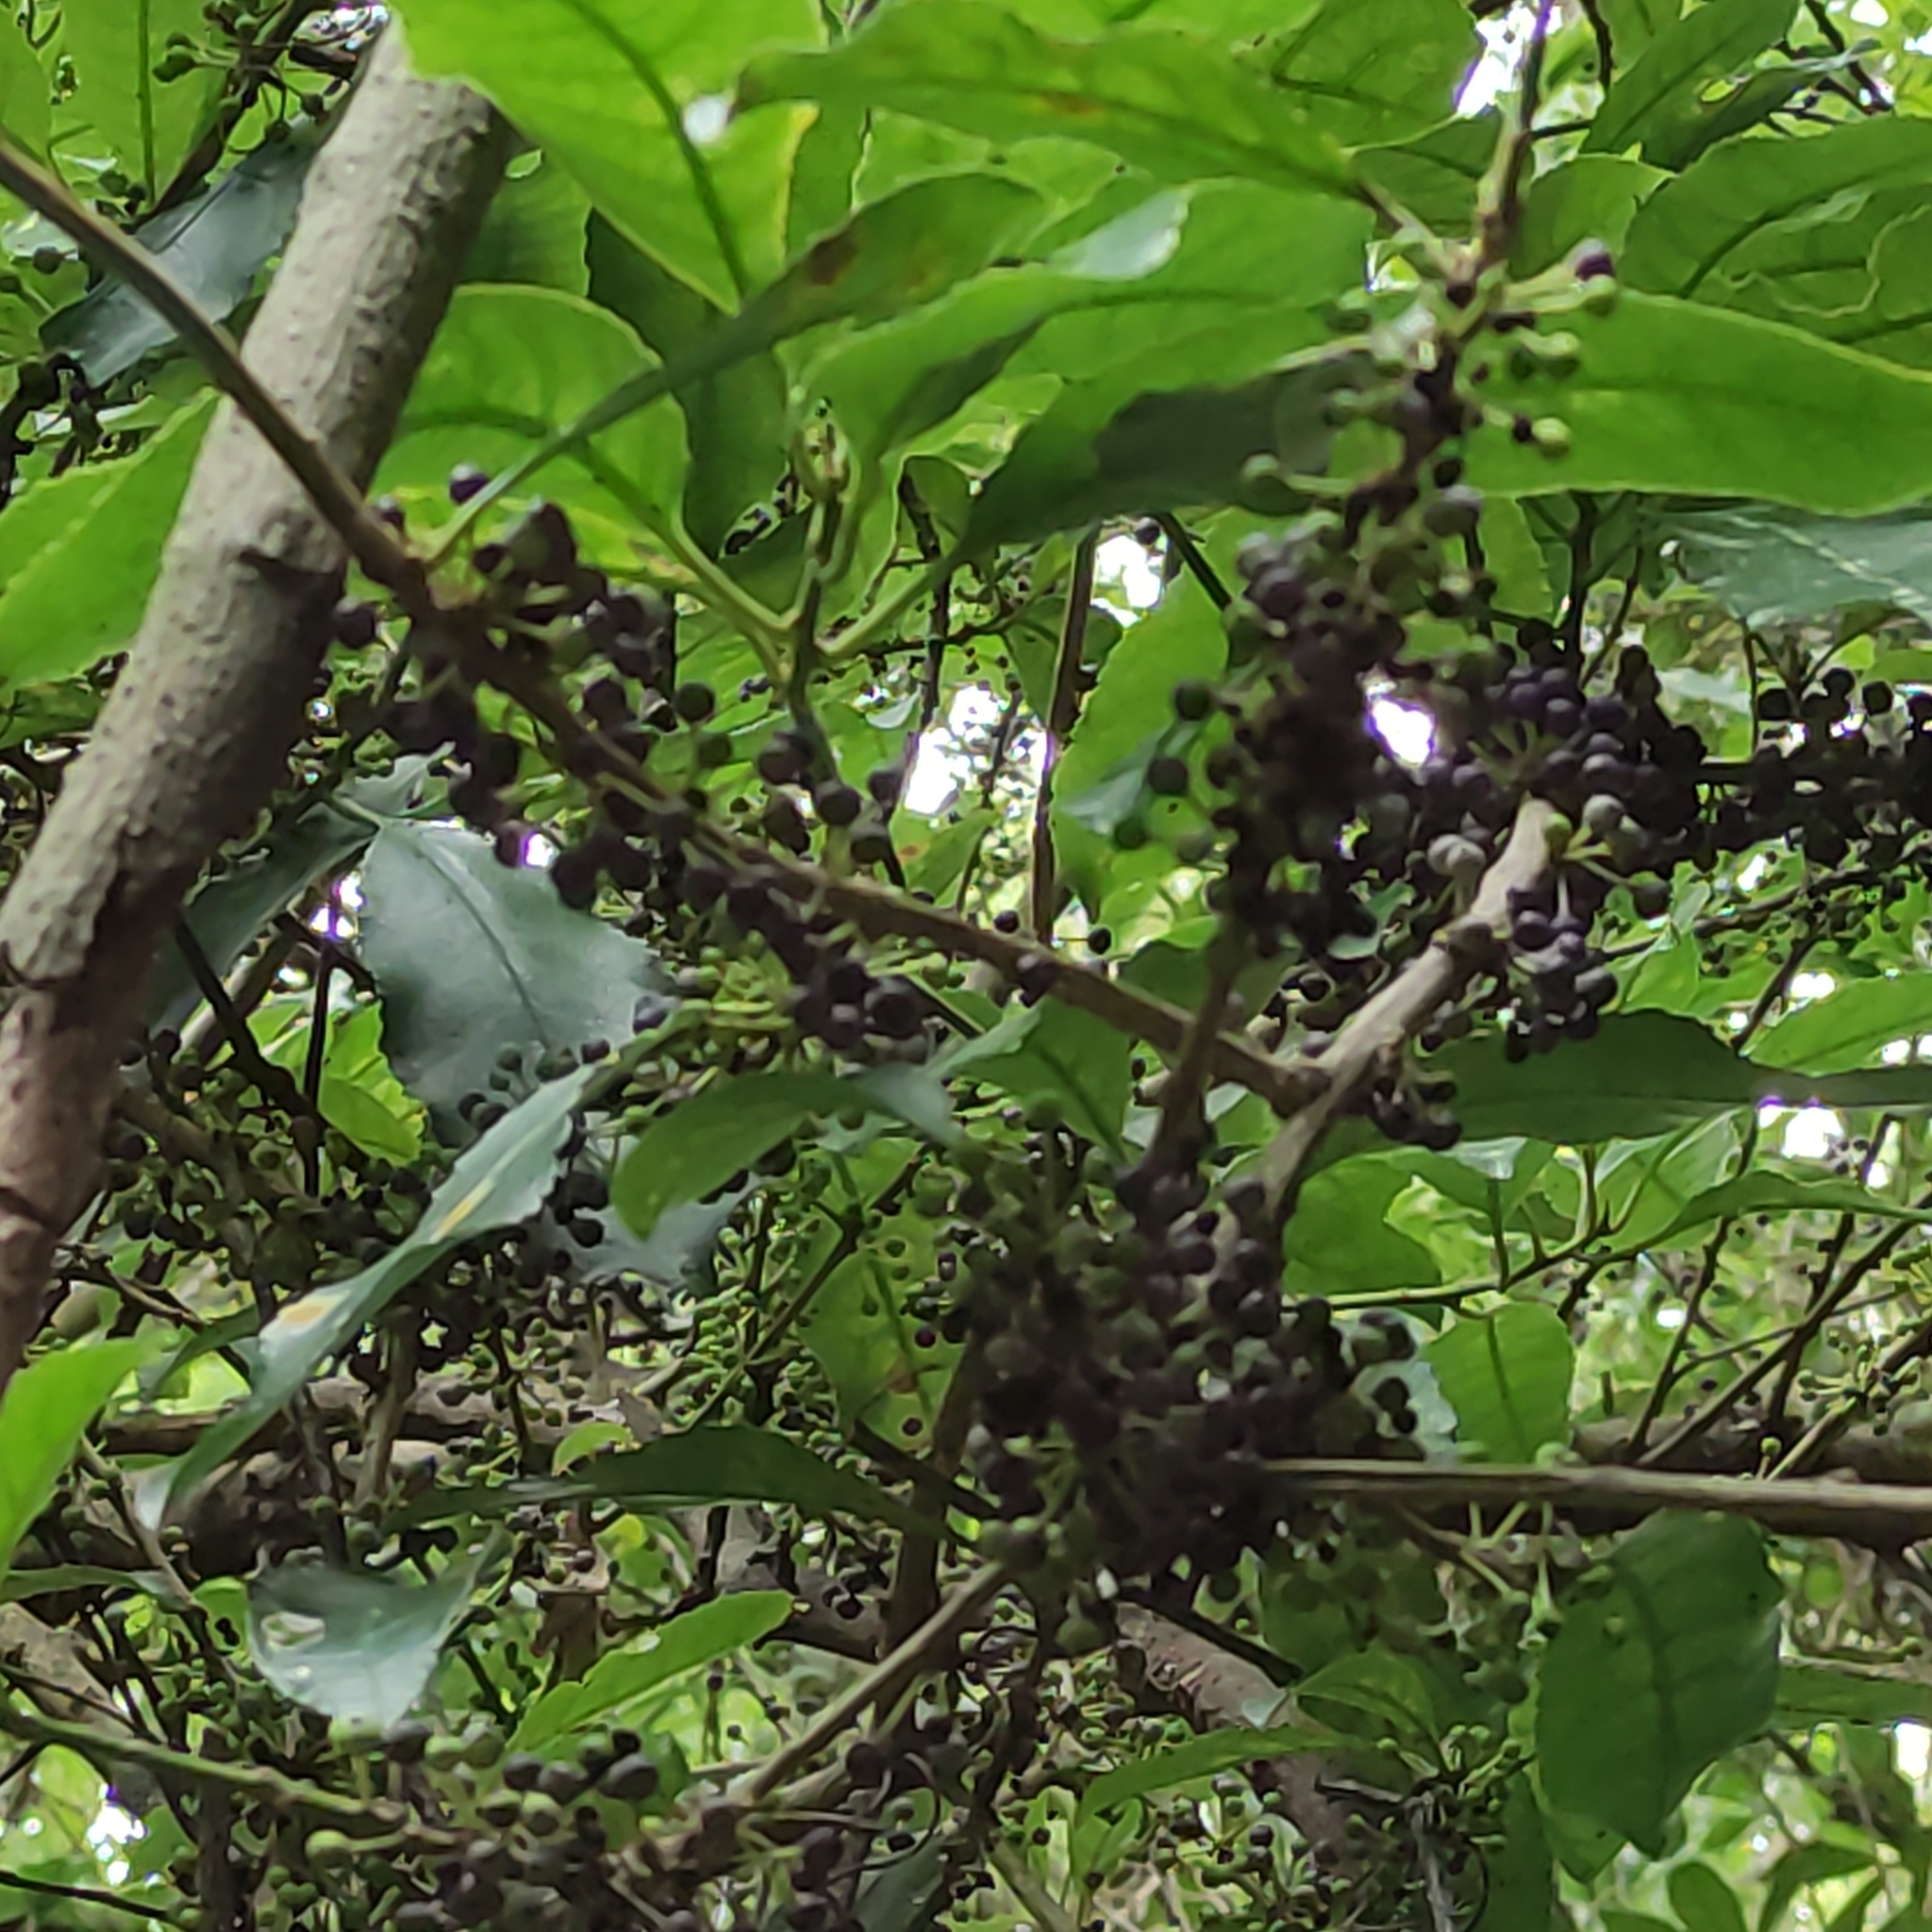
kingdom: Plantae
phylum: Tracheophyta
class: Magnoliopsida
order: Malpighiales
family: Violaceae
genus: Melicytus
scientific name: Melicytus ramiflorus
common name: Mahoe
